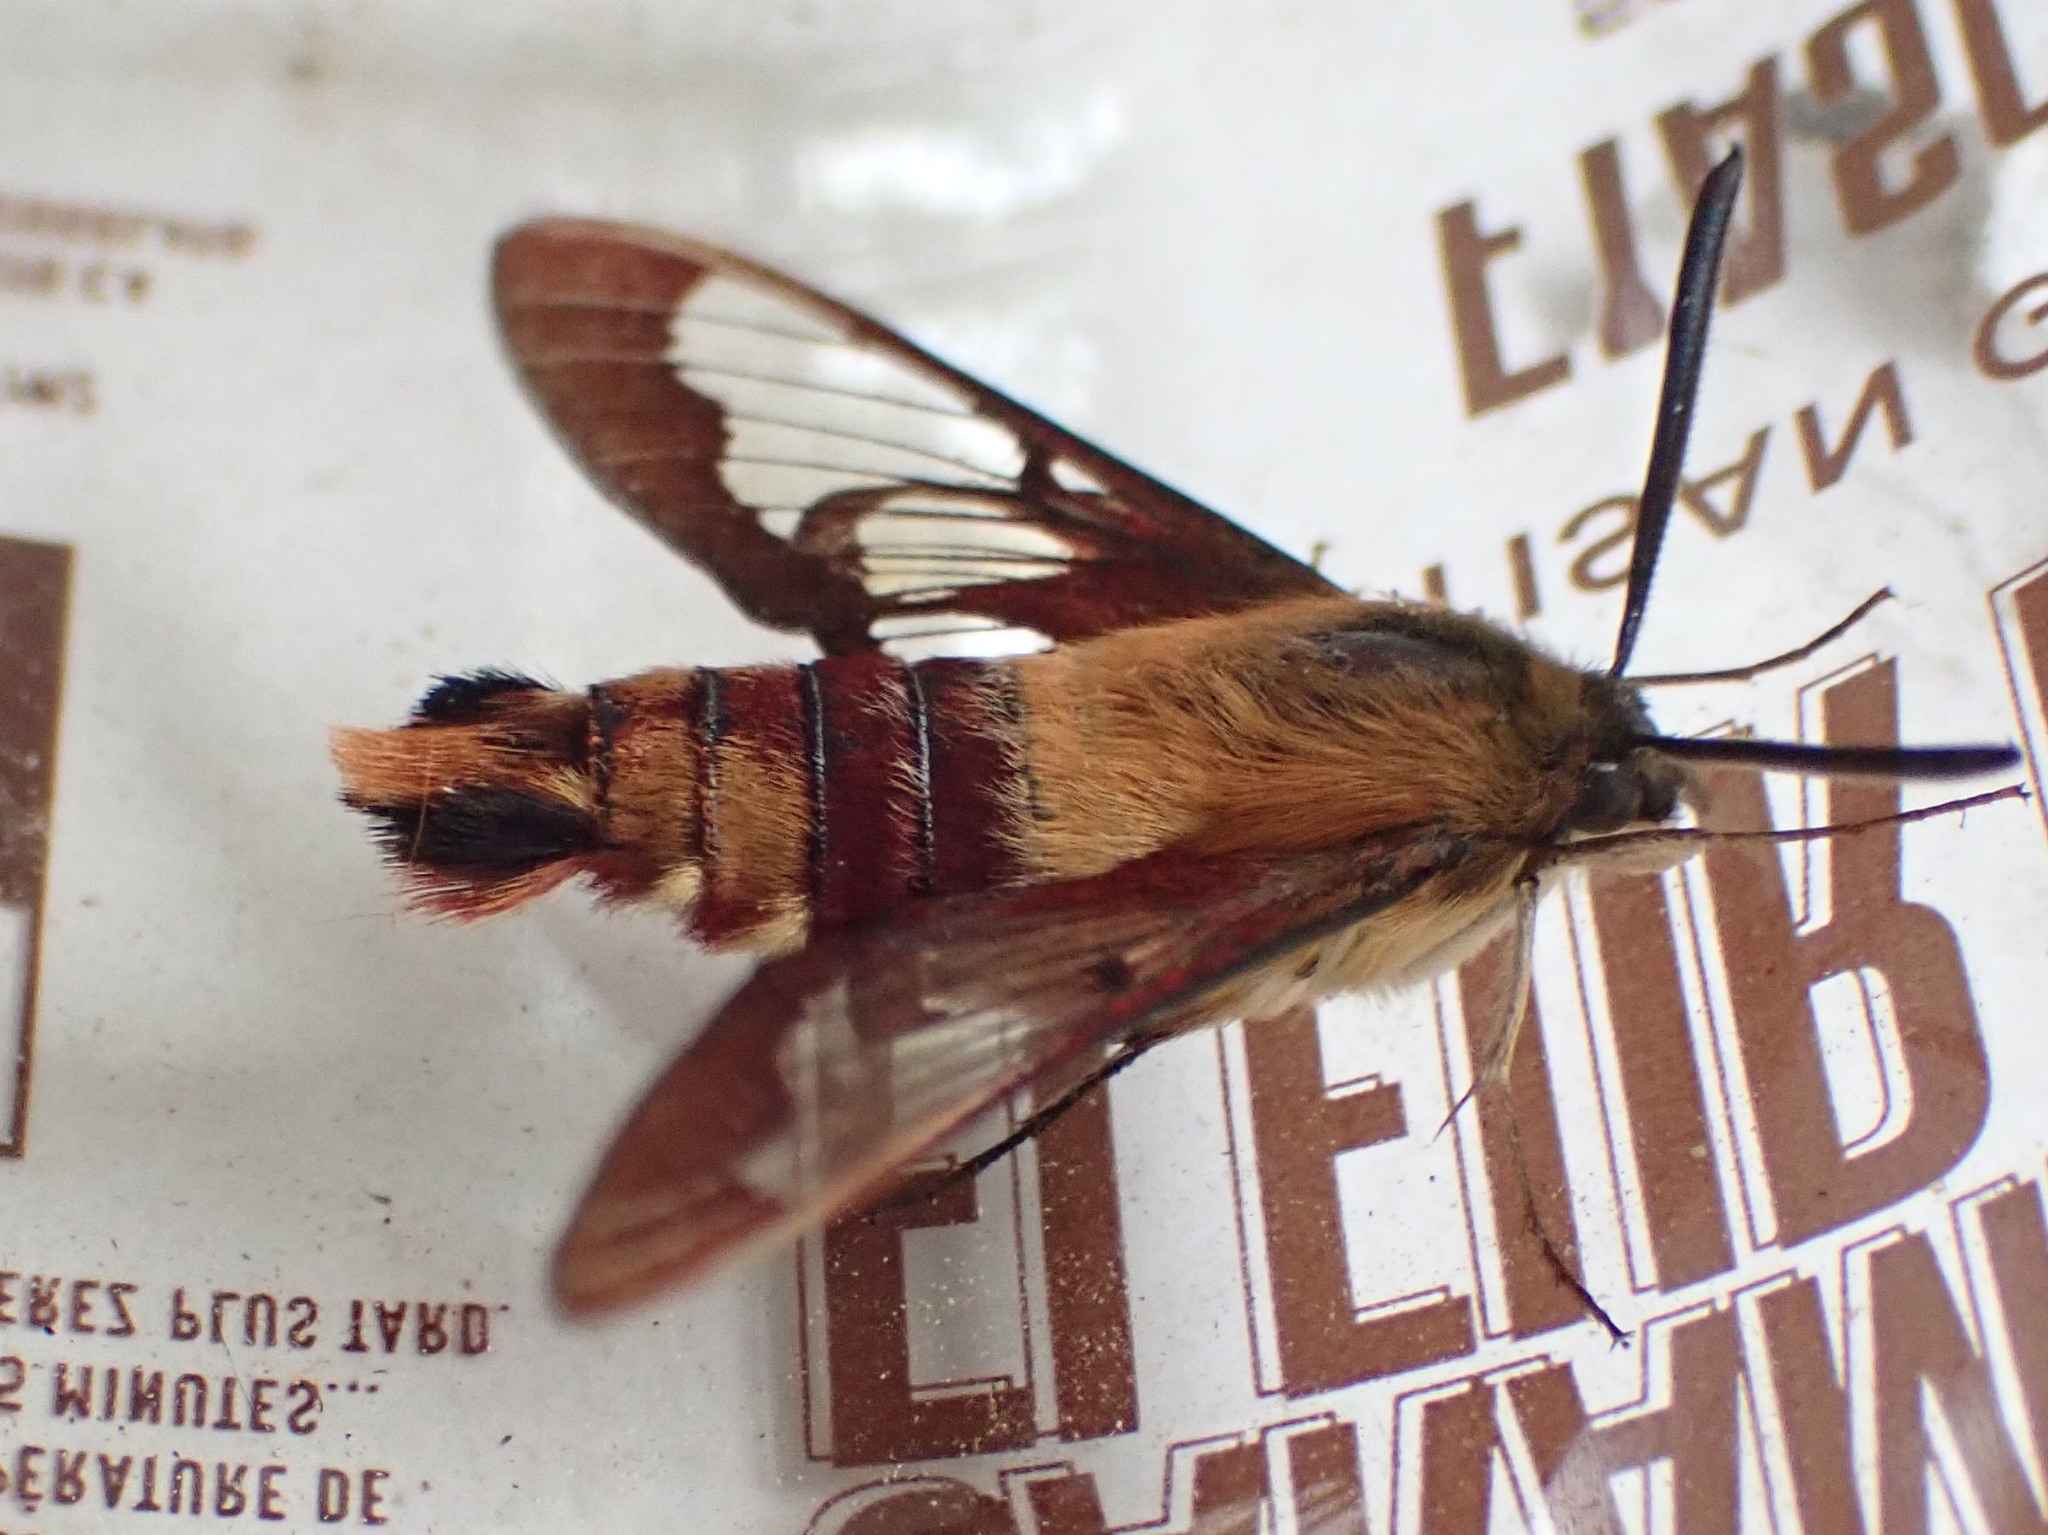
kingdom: Animalia
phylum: Arthropoda
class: Insecta
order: Lepidoptera
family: Sphingidae
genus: Hemaris
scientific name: Hemaris thysbe
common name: Common clear-wing
